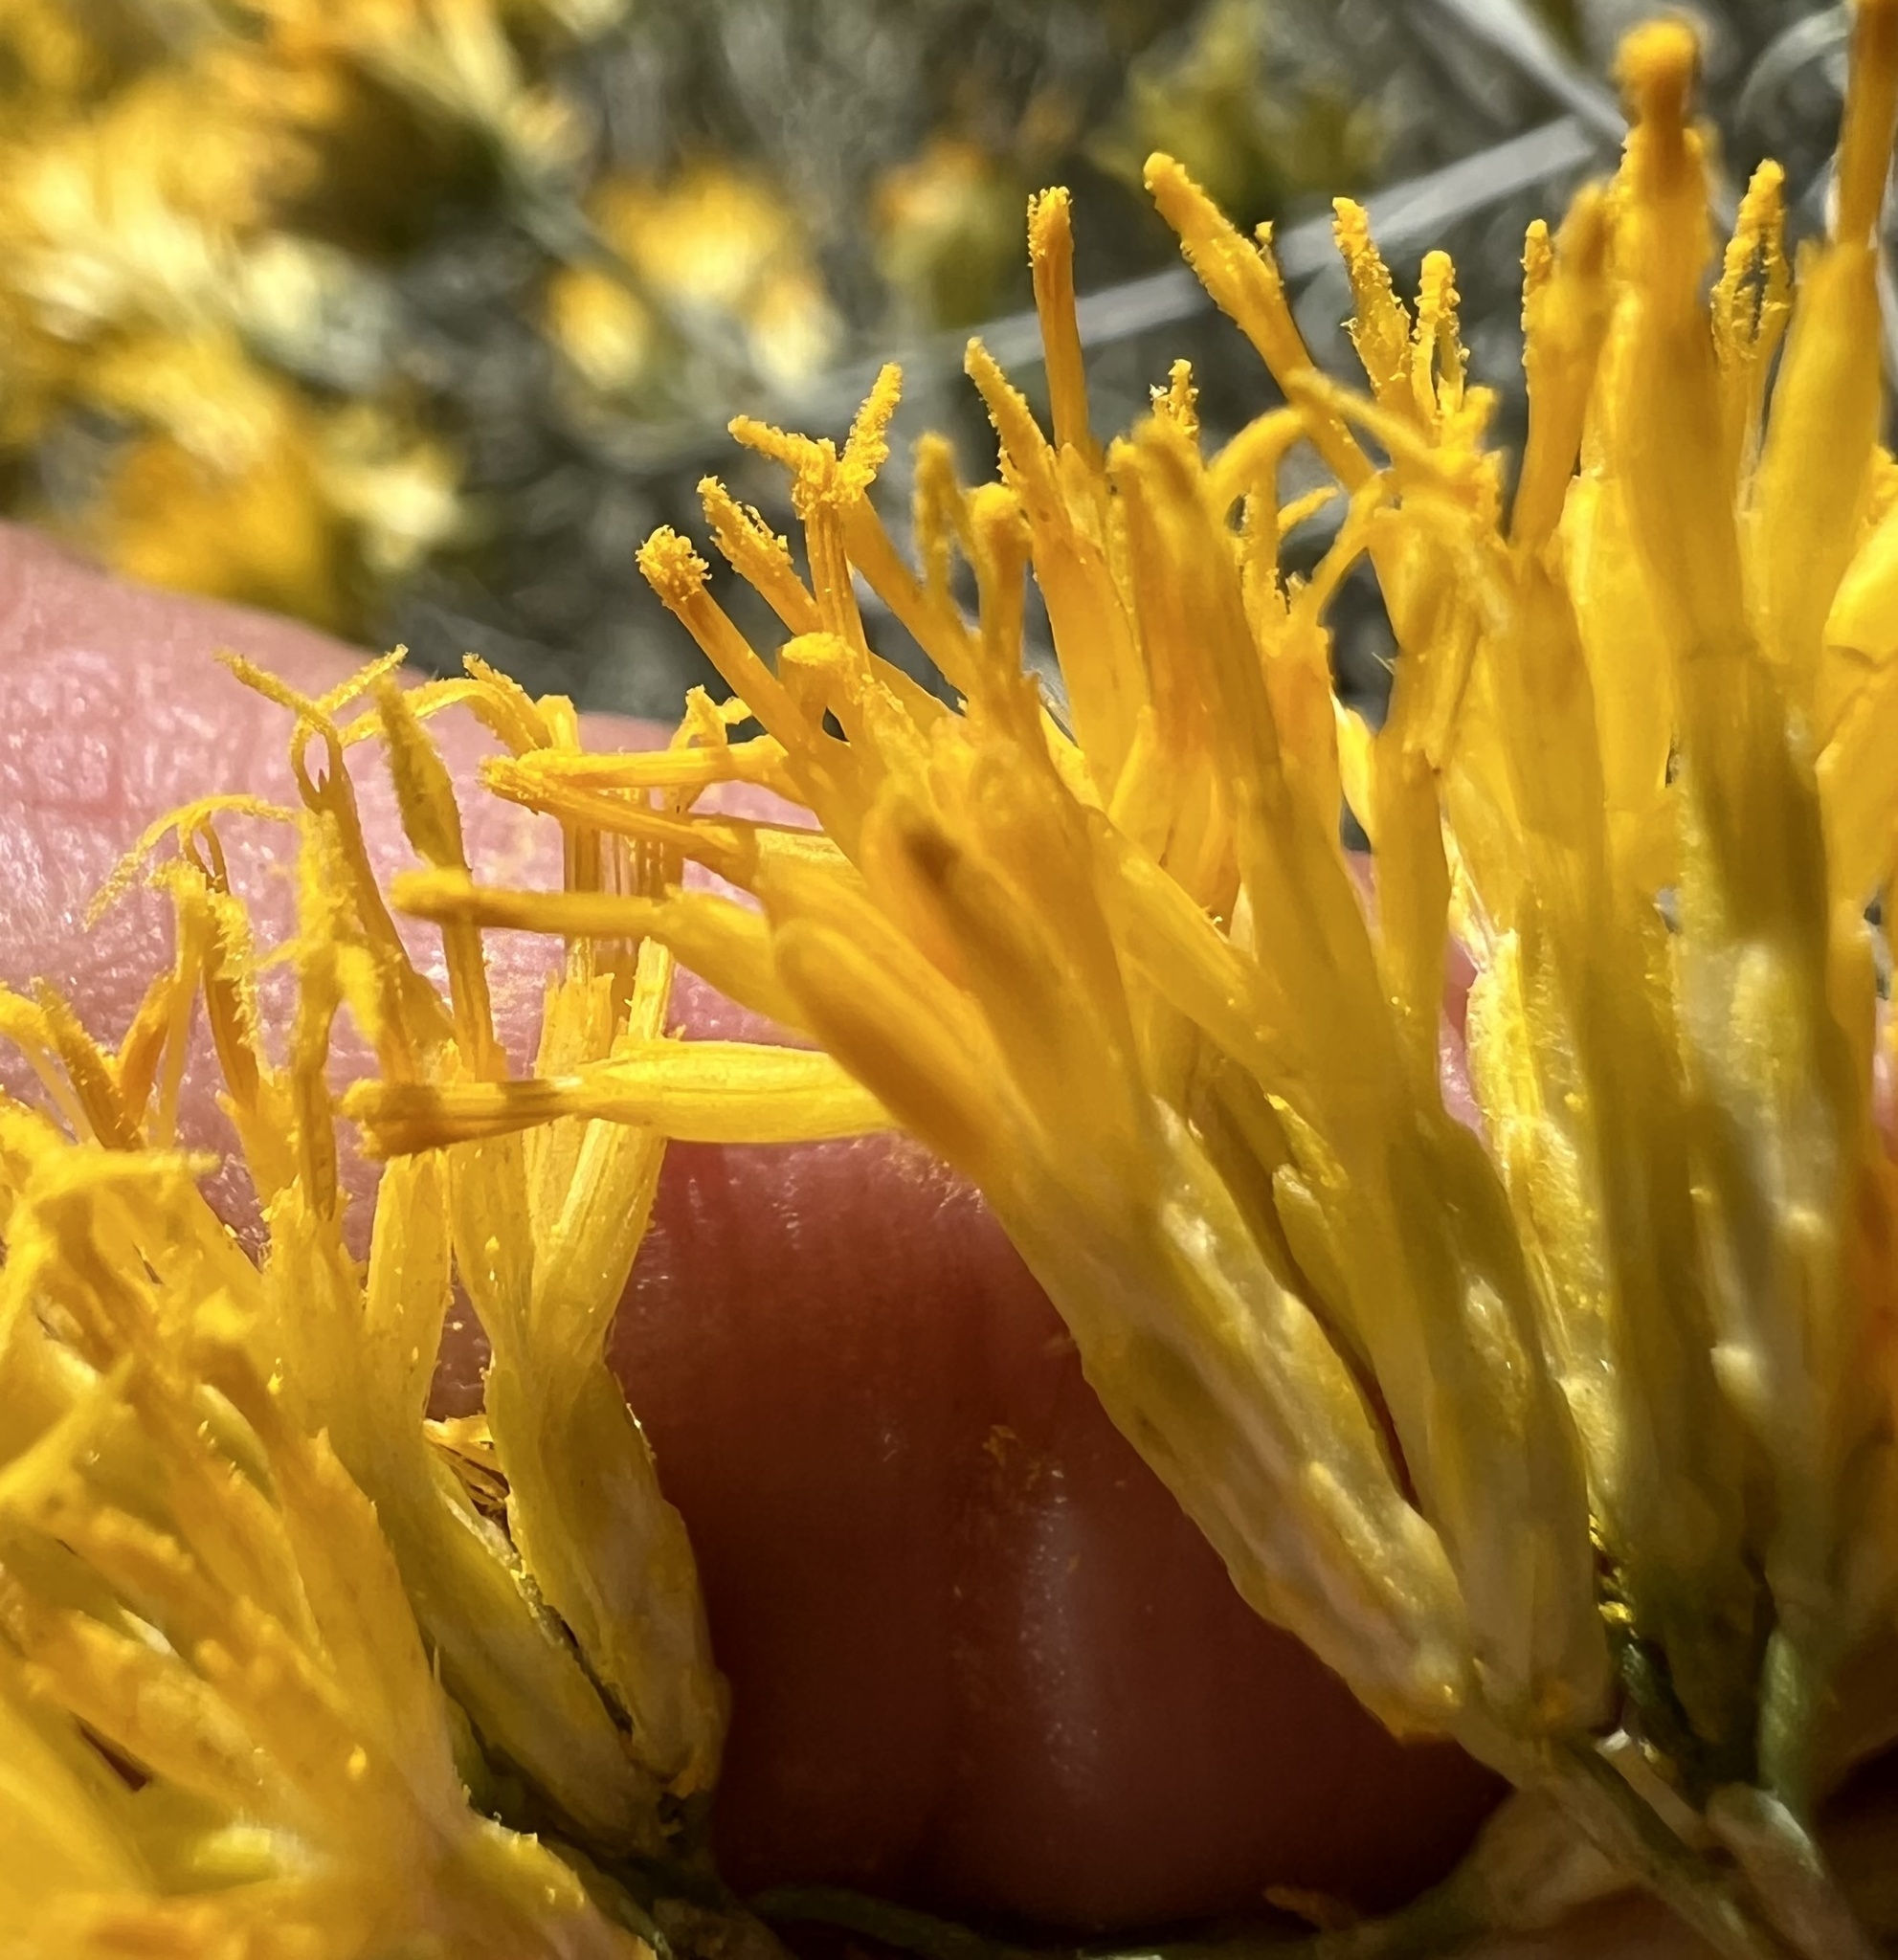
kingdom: Plantae
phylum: Tracheophyta
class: Magnoliopsida
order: Asterales
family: Asteraceae
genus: Ericameria
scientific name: Ericameria nauseosa
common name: Rubber rabbitbrush
